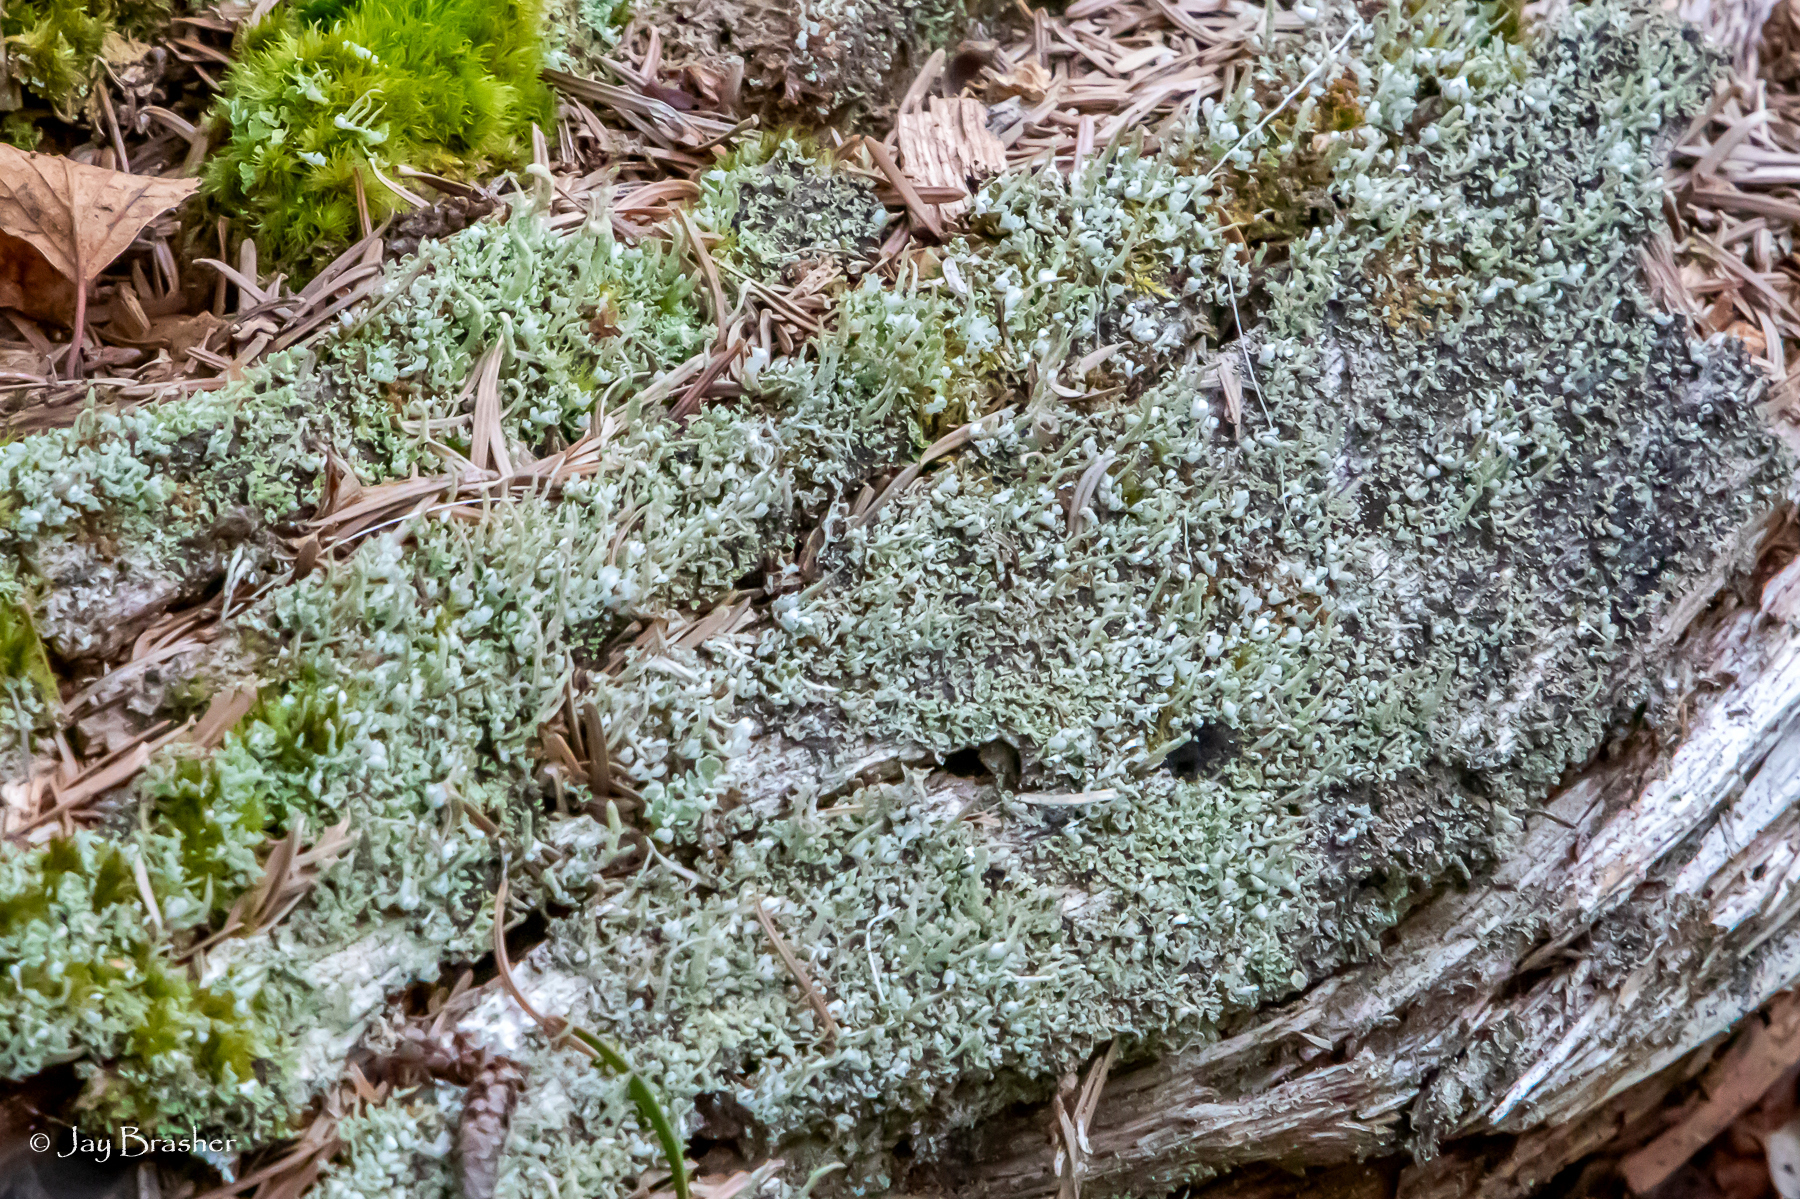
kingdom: Fungi
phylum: Ascomycota
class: Lecanoromycetes
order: Lecanorales
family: Cladoniaceae
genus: Cladonia
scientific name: Cladonia coniocraea
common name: Common powderhorn
